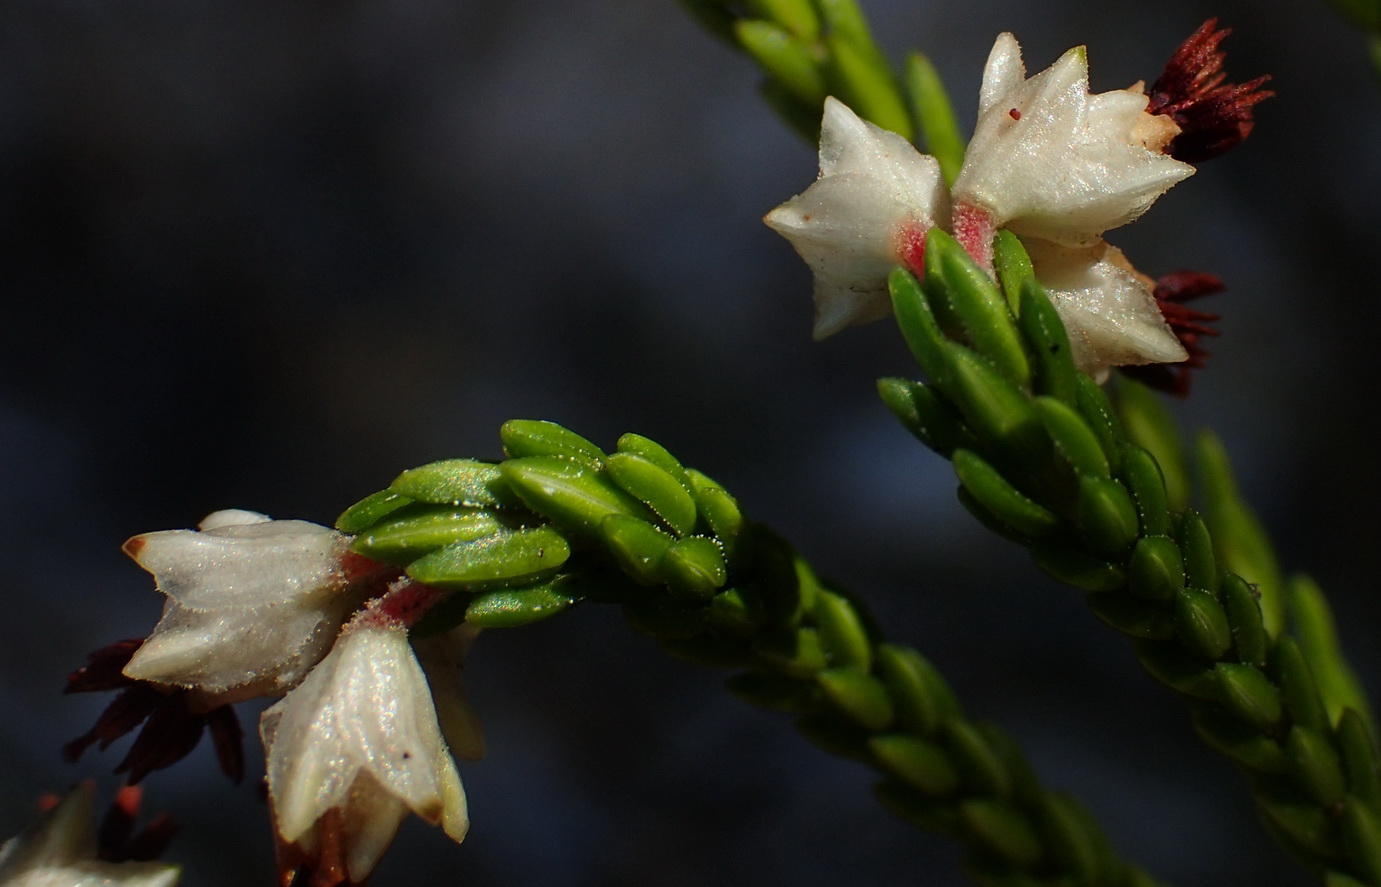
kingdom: Plantae
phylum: Tracheophyta
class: Magnoliopsida
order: Ericales
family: Ericaceae
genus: Erica
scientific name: Erica triceps
